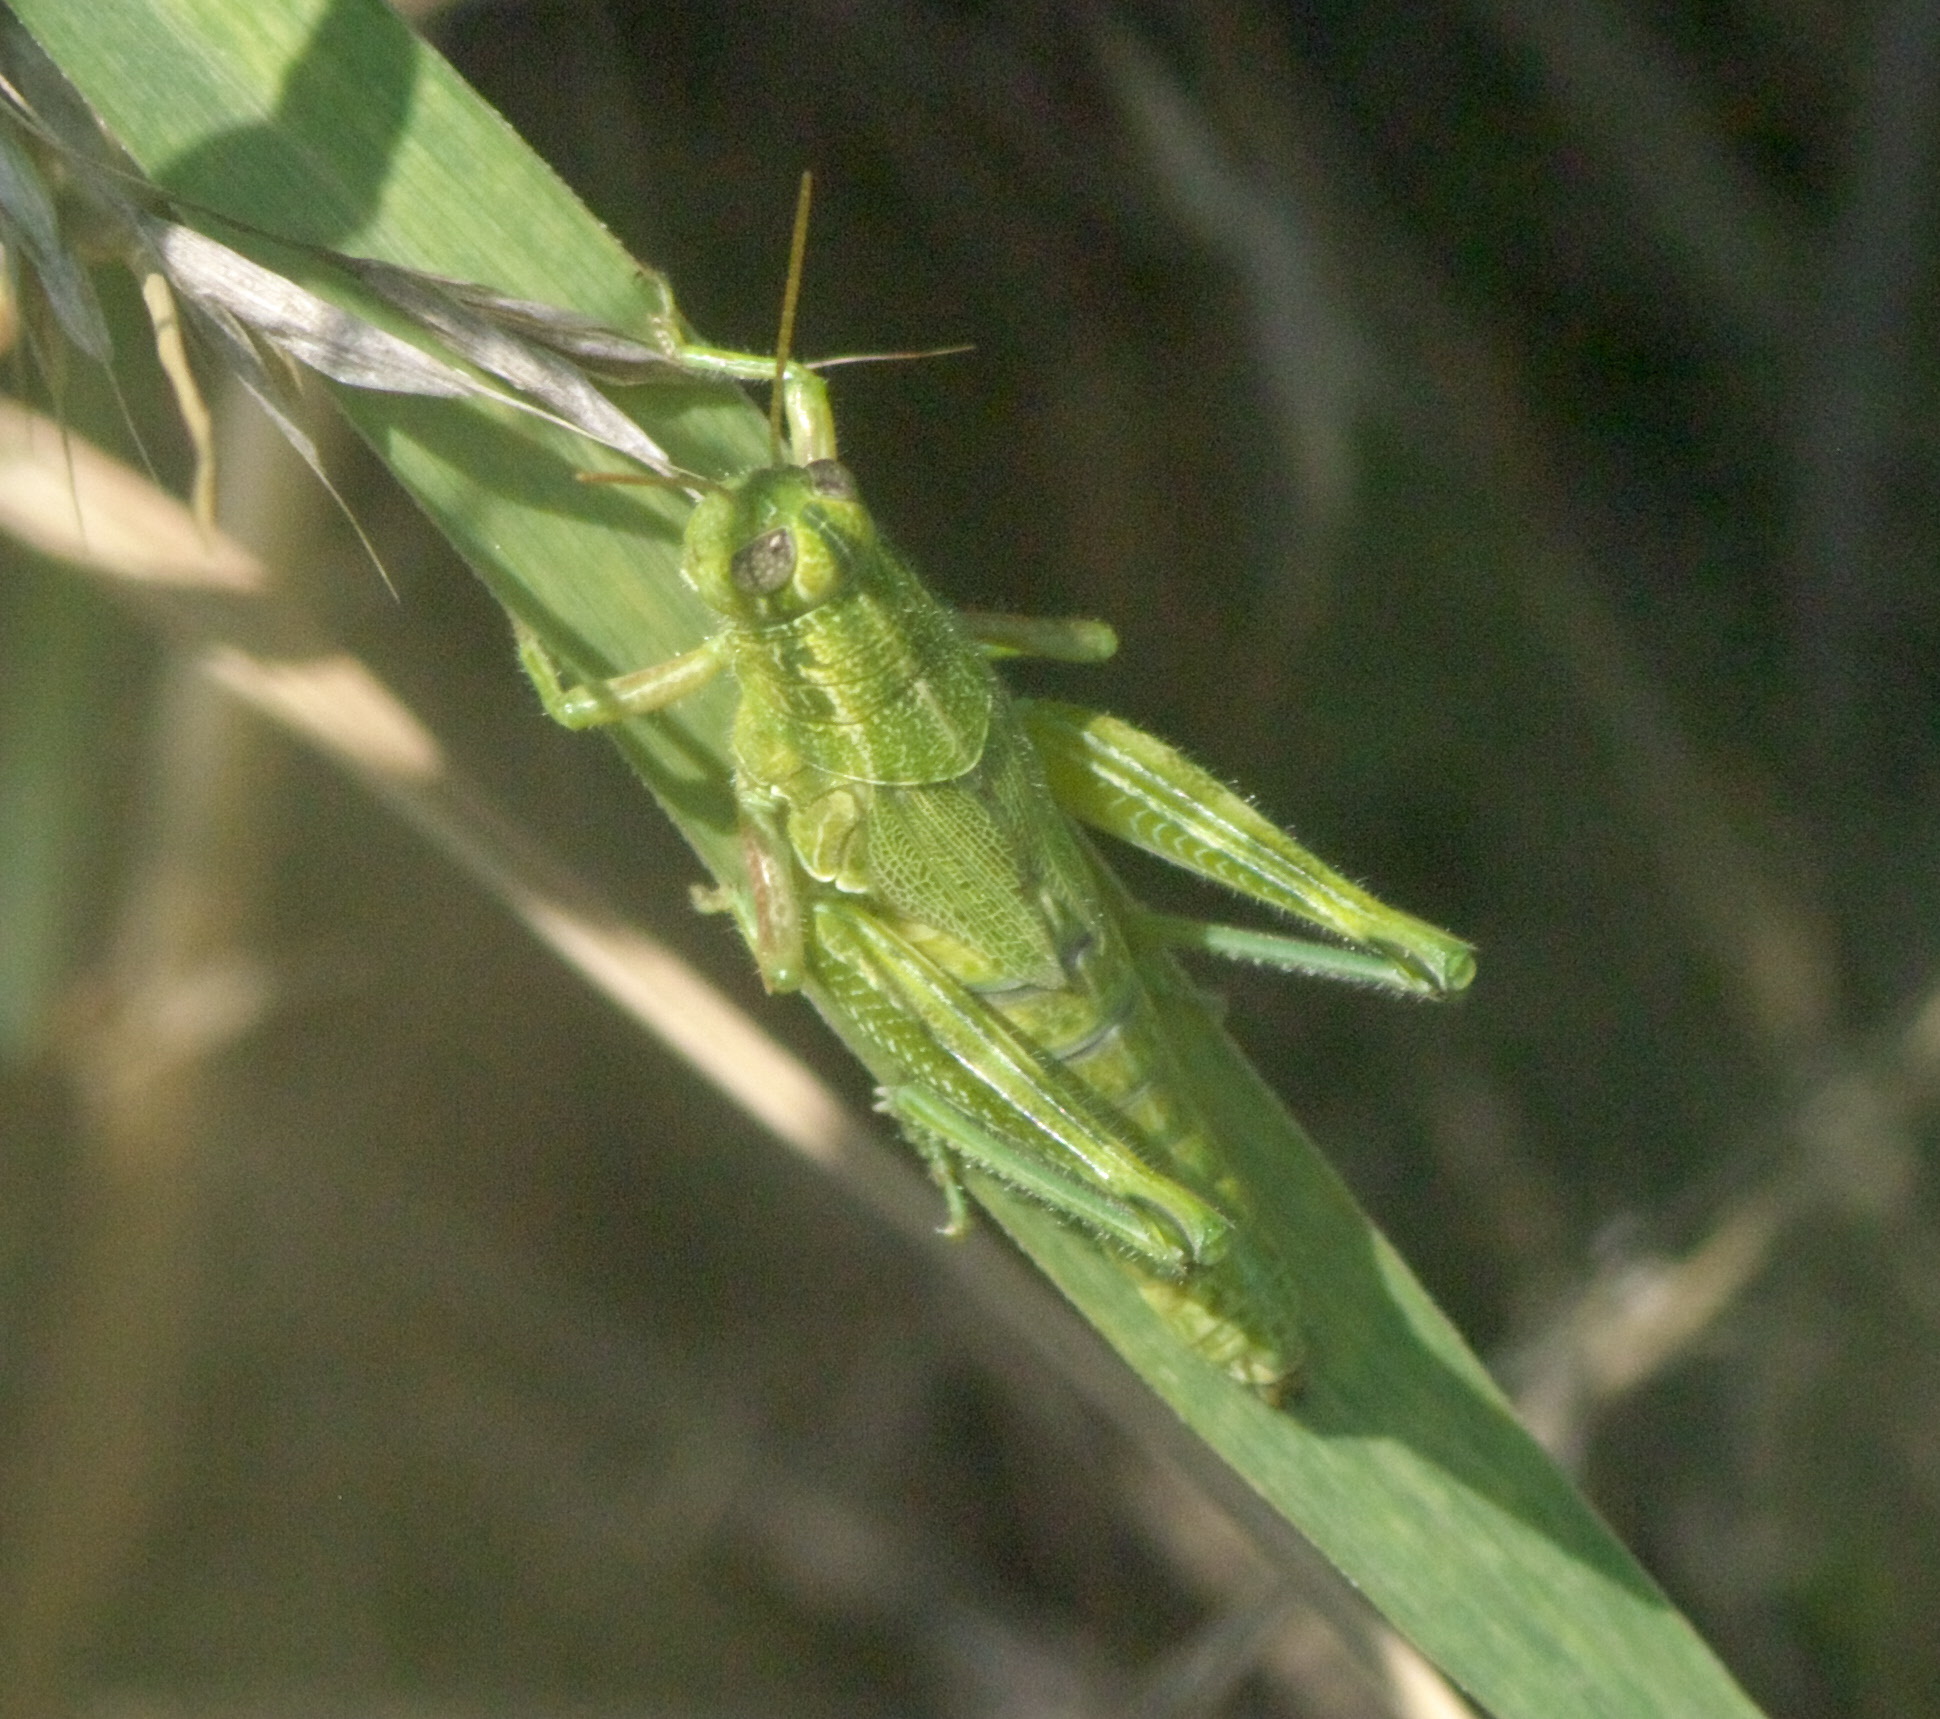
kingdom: Animalia
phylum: Arthropoda
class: Insecta
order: Orthoptera
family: Acrididae
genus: Campylacantha
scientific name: Campylacantha olivacea
